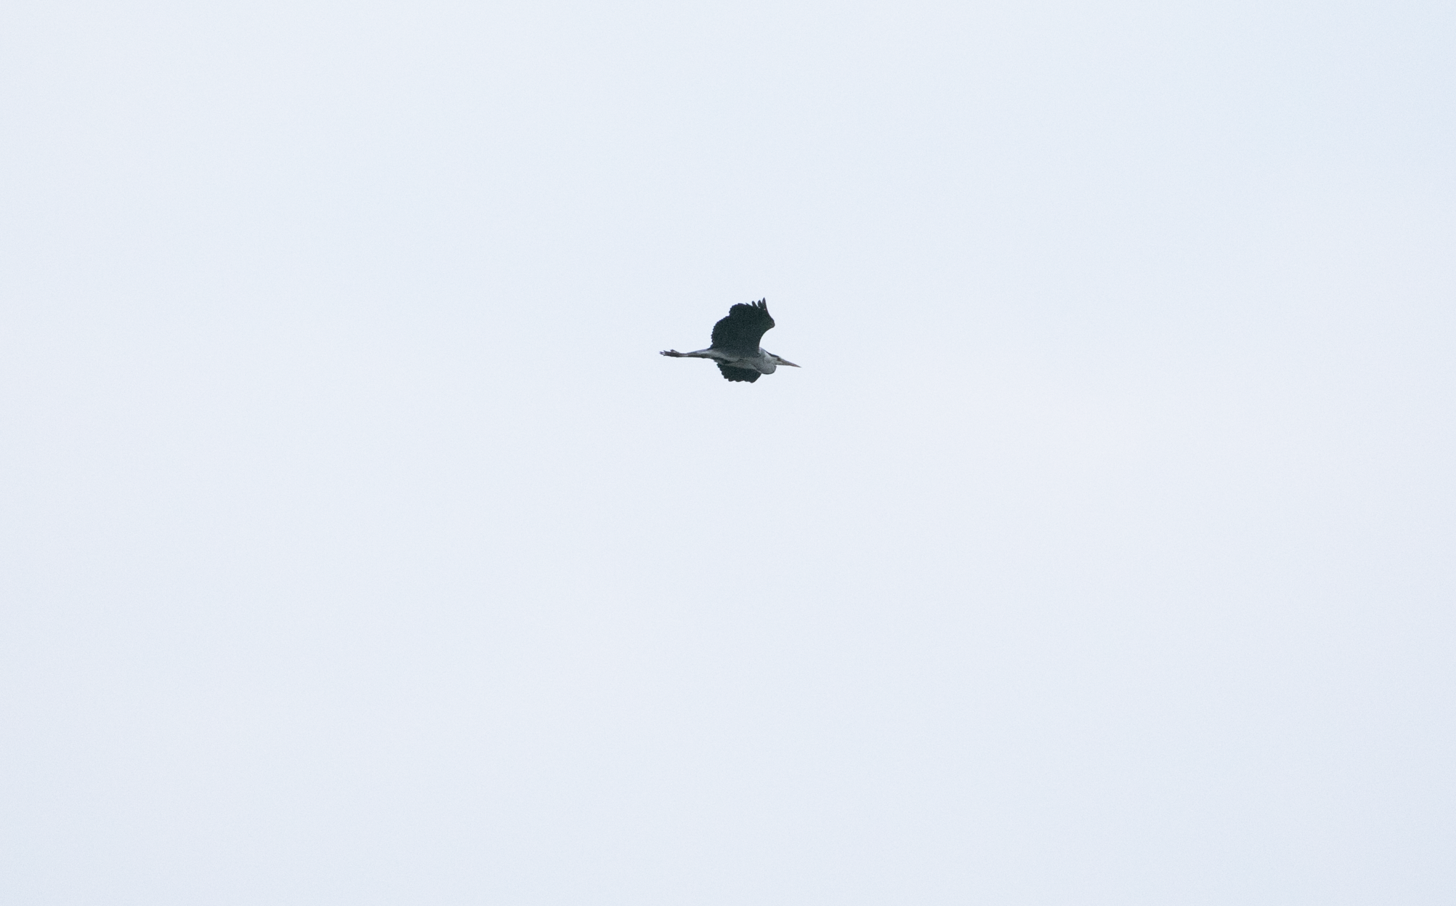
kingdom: Animalia
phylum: Chordata
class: Aves
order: Pelecaniformes
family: Ardeidae
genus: Ardea
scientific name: Ardea cinerea
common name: Grey heron
